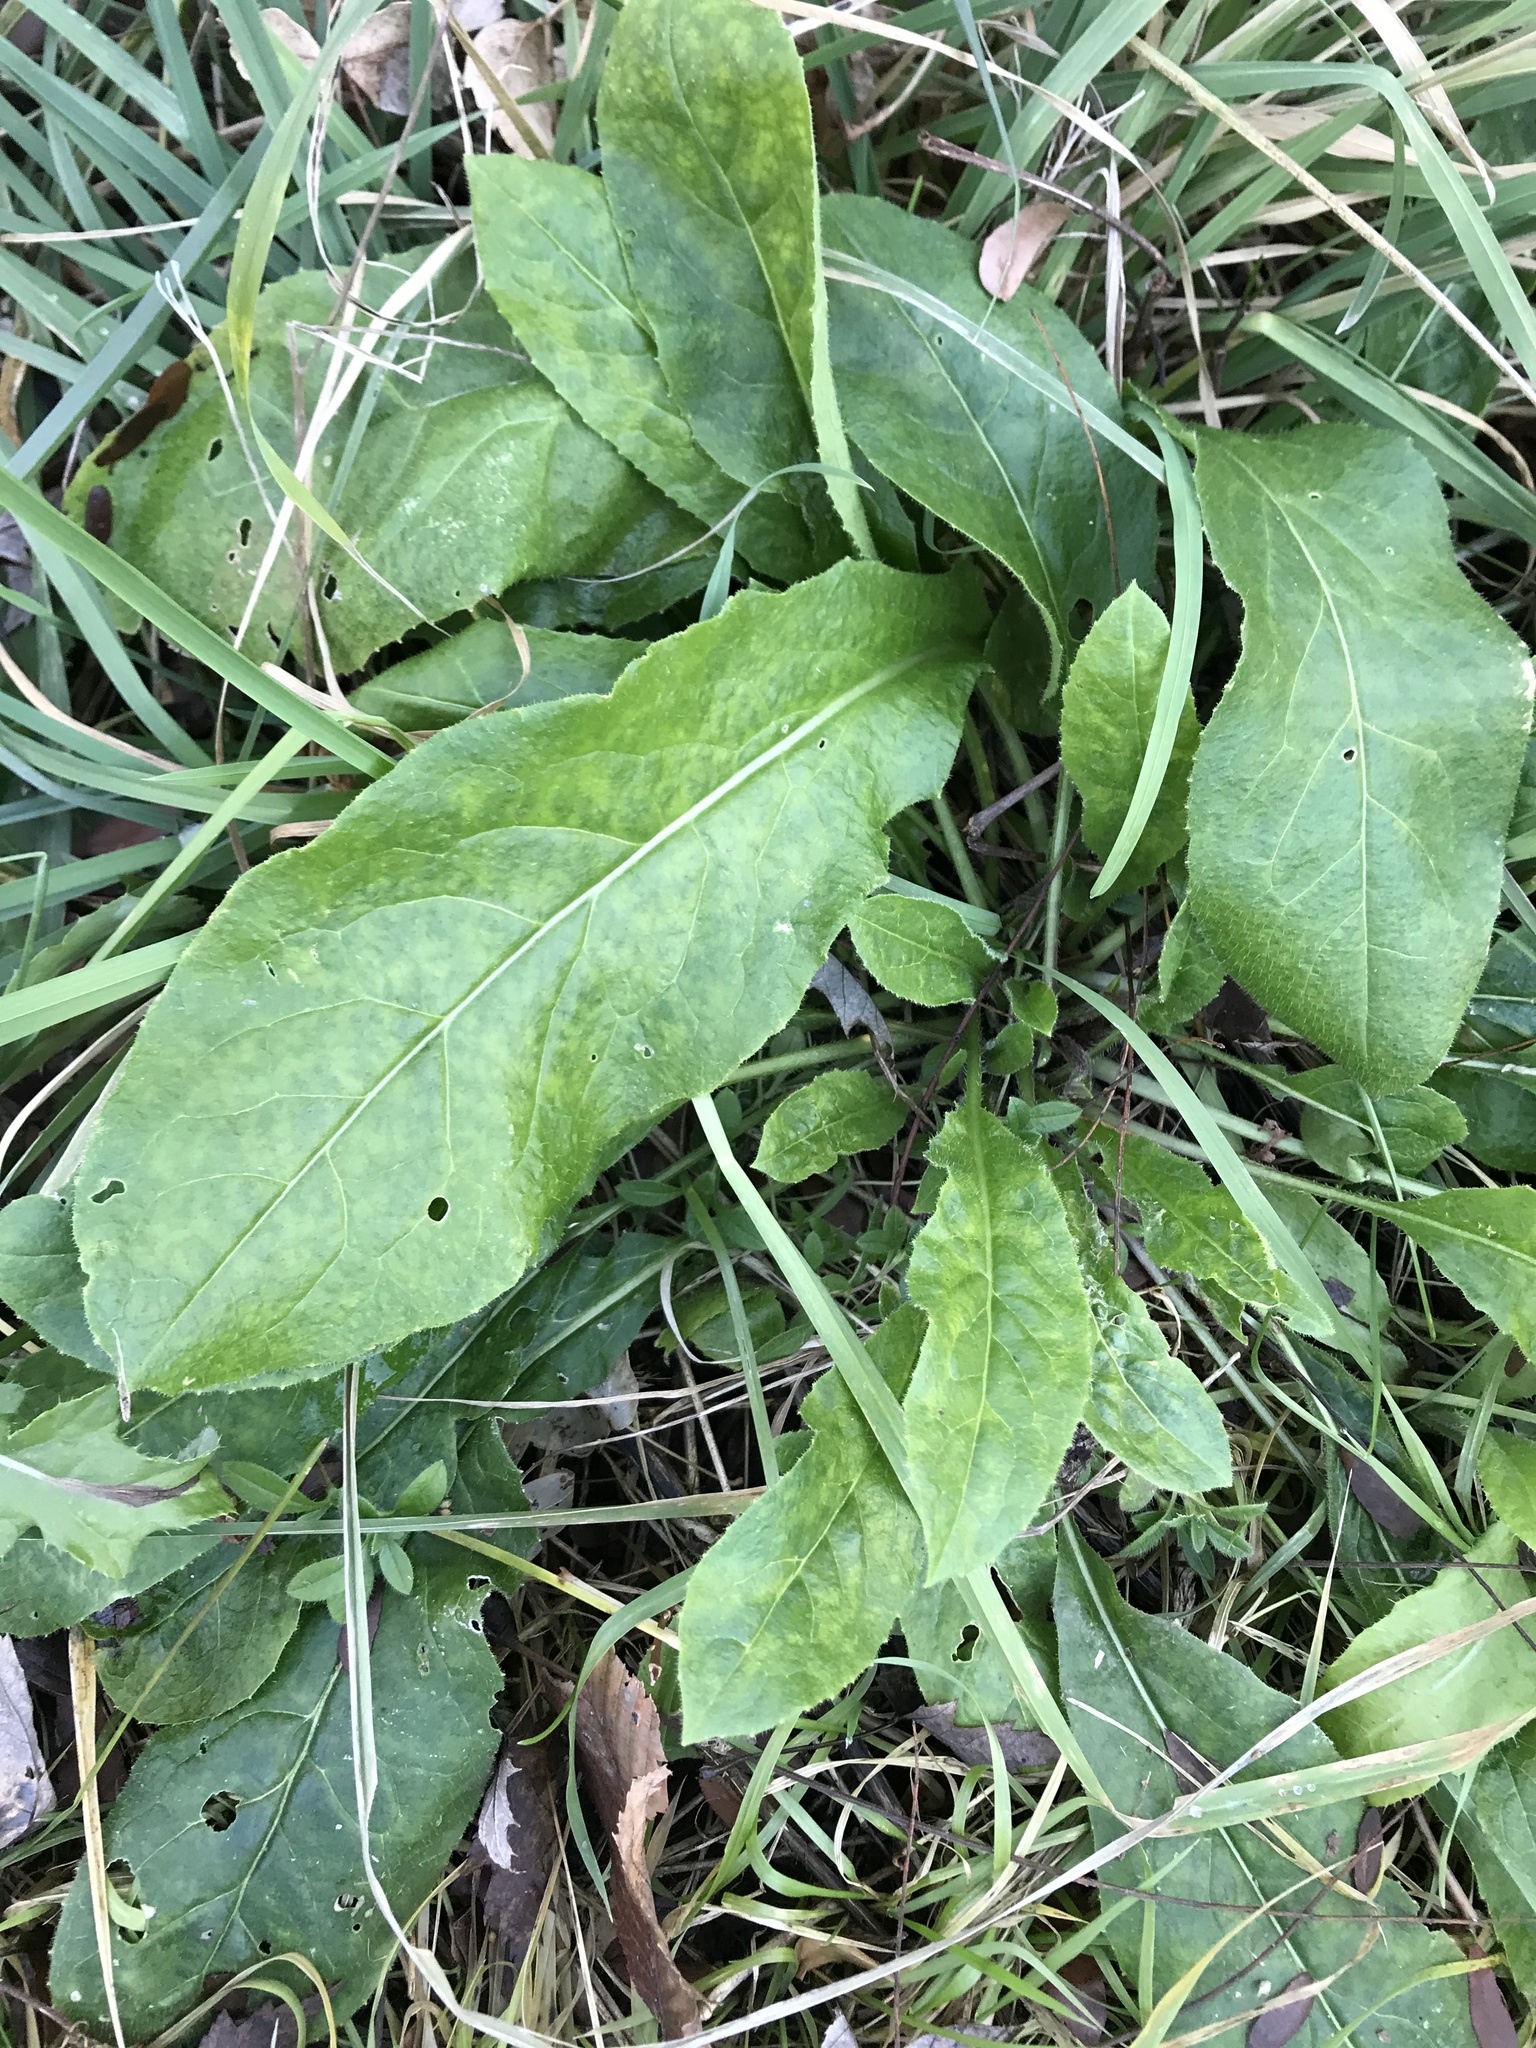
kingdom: Plantae
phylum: Tracheophyta
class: Magnoliopsida
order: Brassicales
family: Brassicaceae
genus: Hesperis
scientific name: Hesperis matronalis
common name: Dame's-violet
